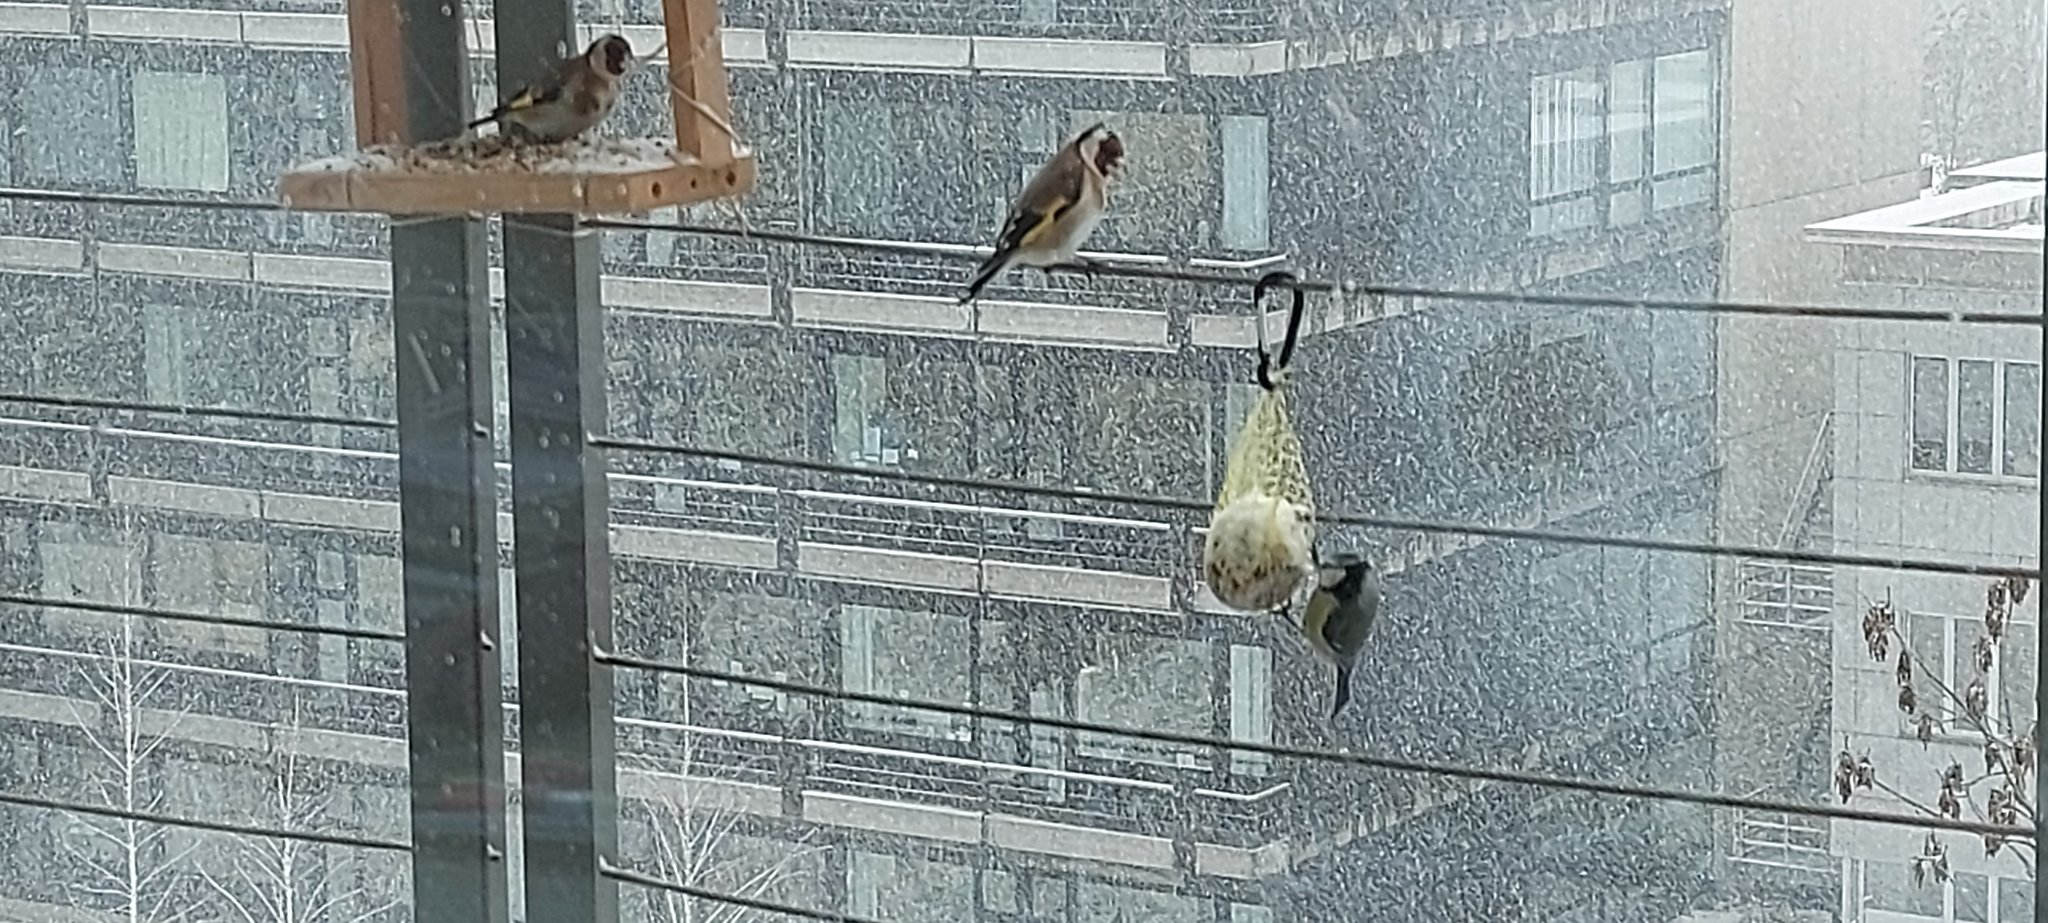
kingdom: Animalia
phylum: Chordata
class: Aves
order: Passeriformes
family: Paridae
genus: Cyanistes
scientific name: Cyanistes caeruleus
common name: Eurasian blue tit
